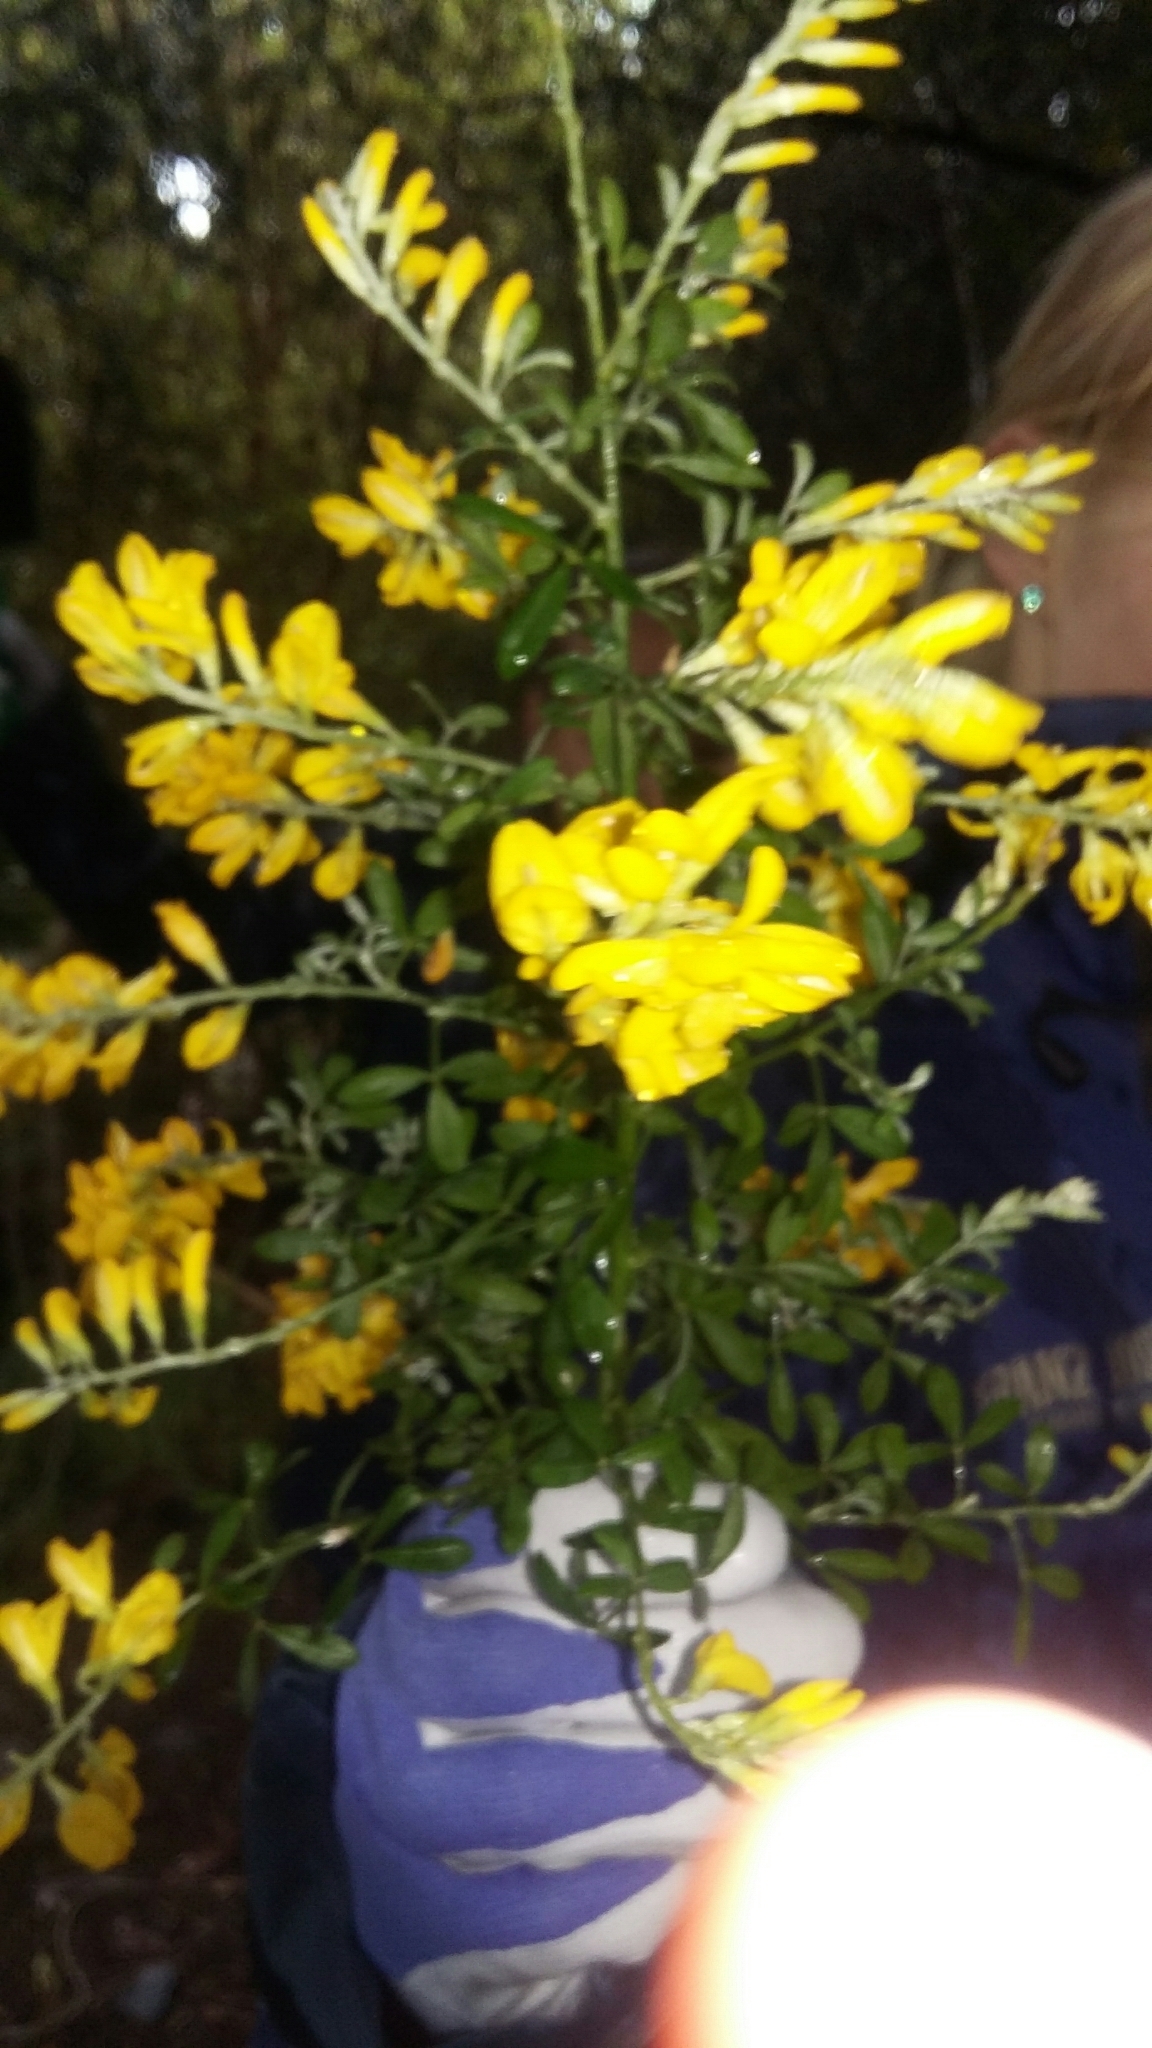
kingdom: Plantae
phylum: Tracheophyta
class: Magnoliopsida
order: Fabales
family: Fabaceae
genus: Genista
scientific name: Genista stenopetala
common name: Leafy broom
